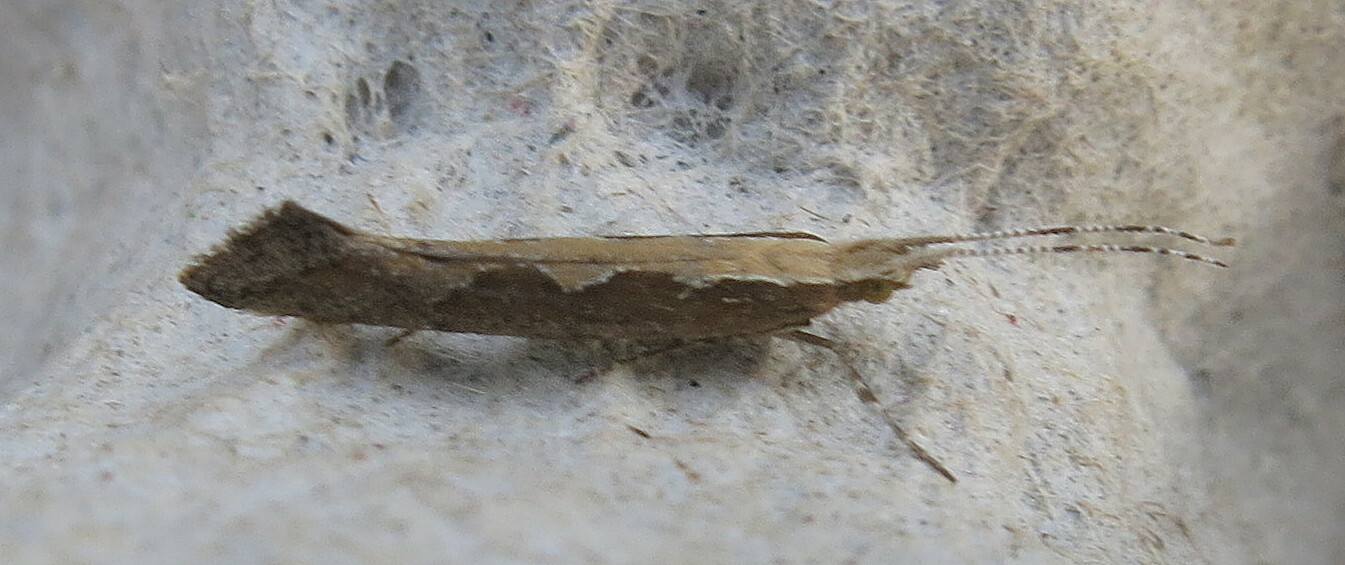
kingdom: Animalia
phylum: Arthropoda
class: Insecta
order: Lepidoptera
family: Plutellidae
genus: Plutella
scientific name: Plutella xylostella
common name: Diamond-back moth
